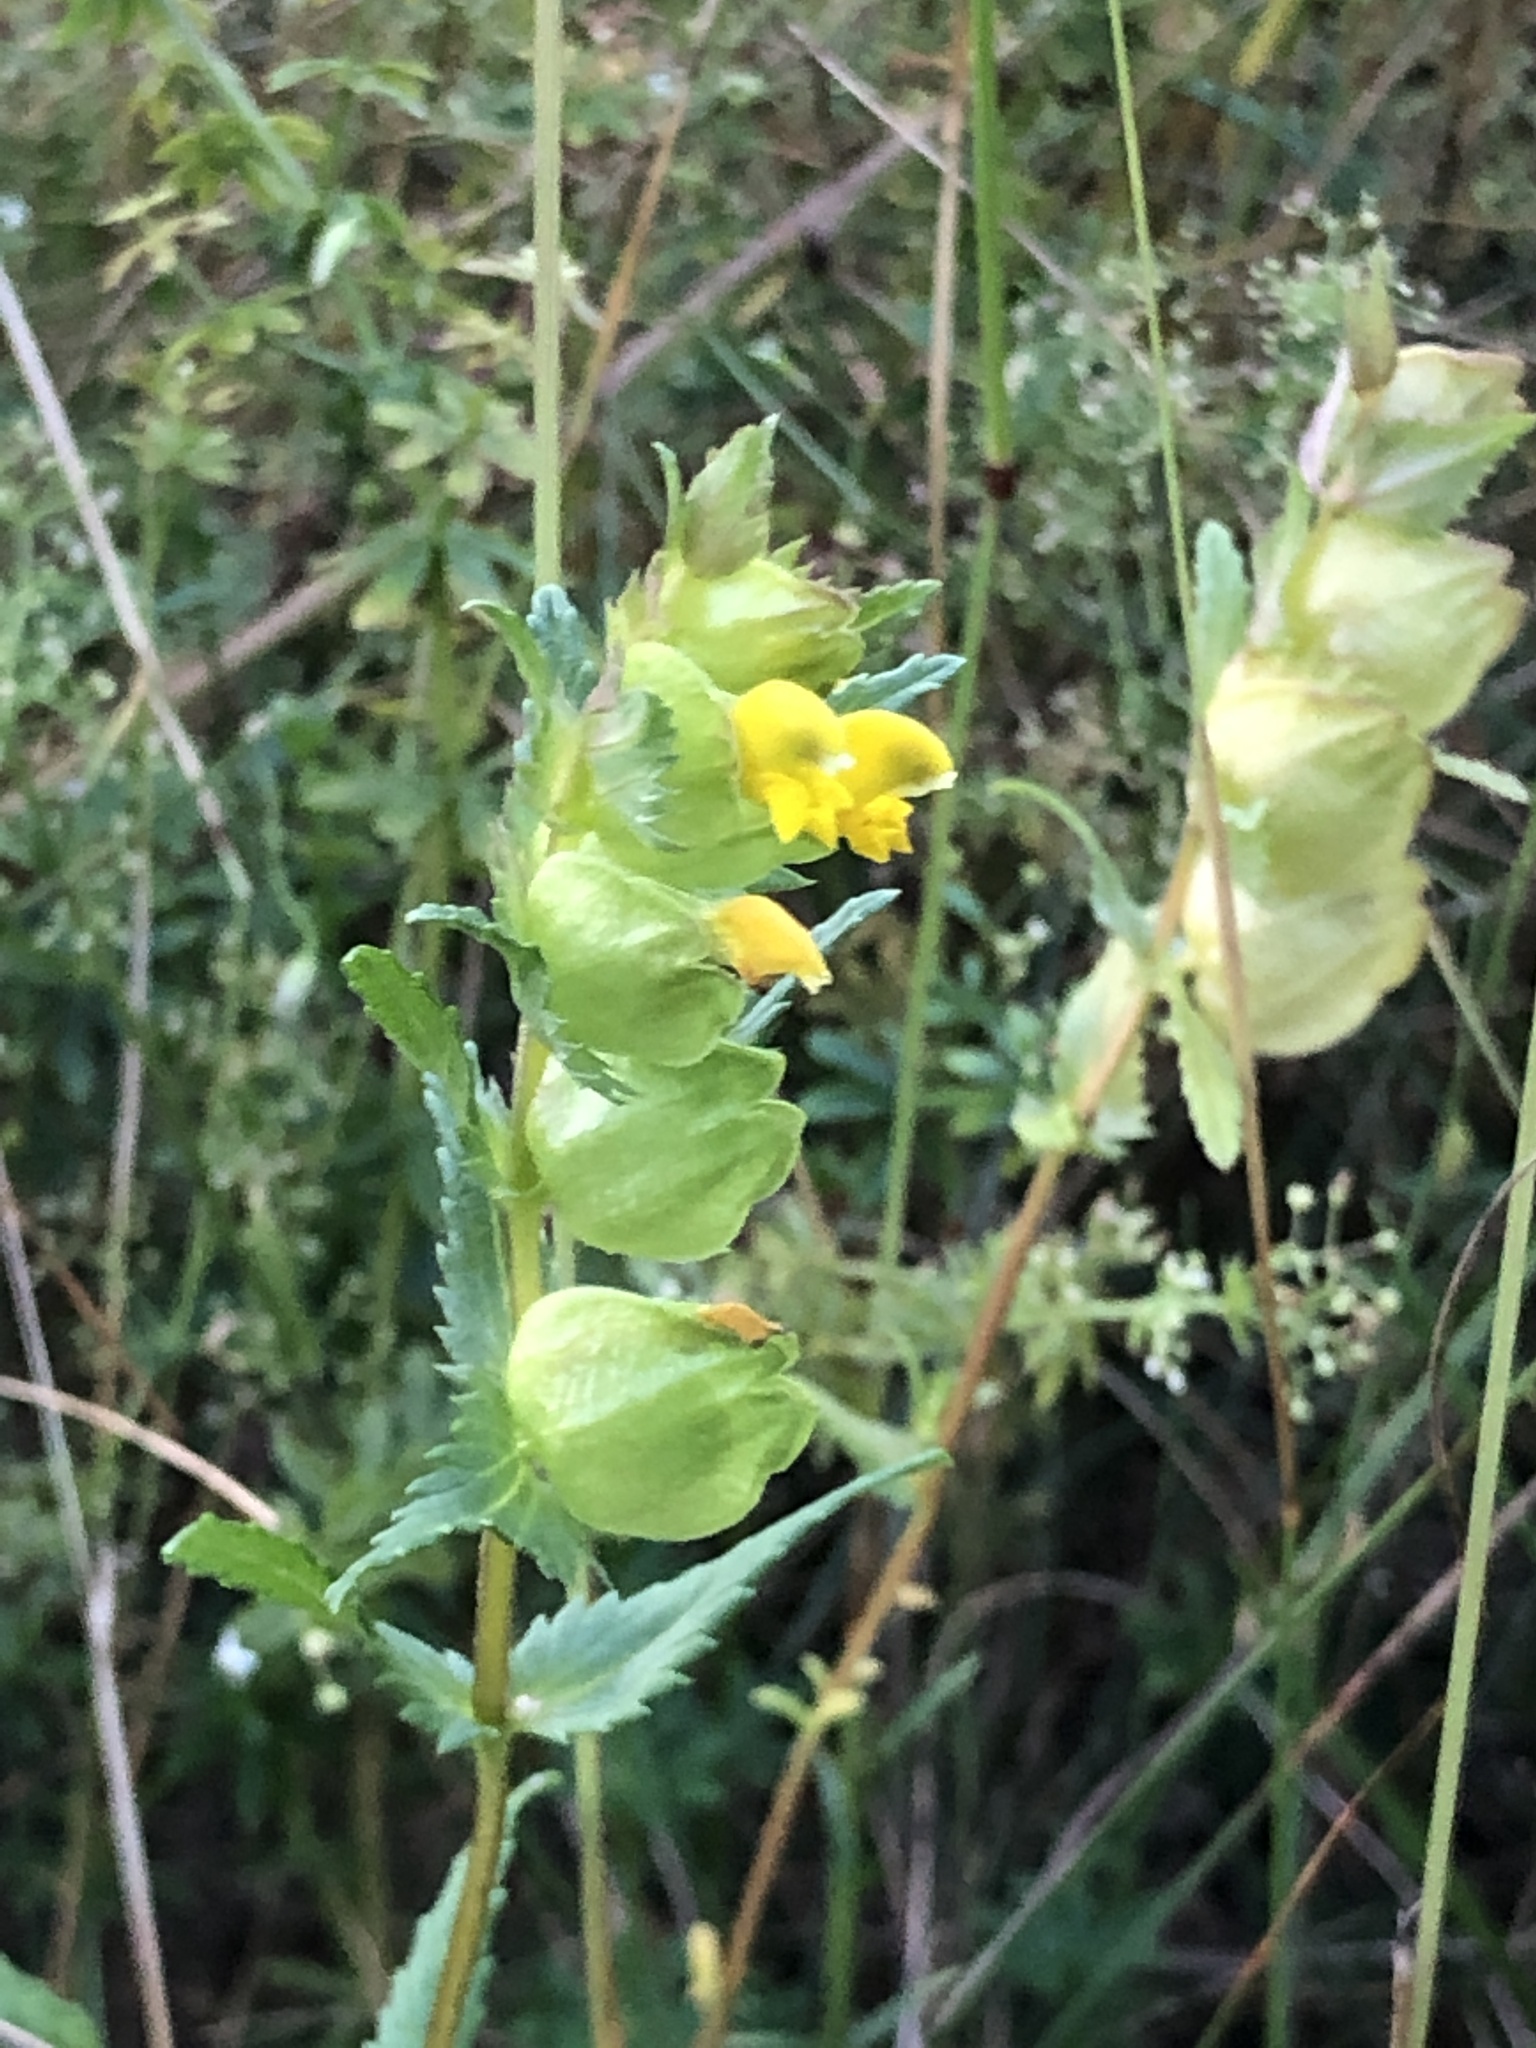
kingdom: Plantae
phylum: Tracheophyta
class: Magnoliopsida
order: Lamiales
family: Orobanchaceae
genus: Rhinanthus
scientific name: Rhinanthus minor
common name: Yellow-rattle
